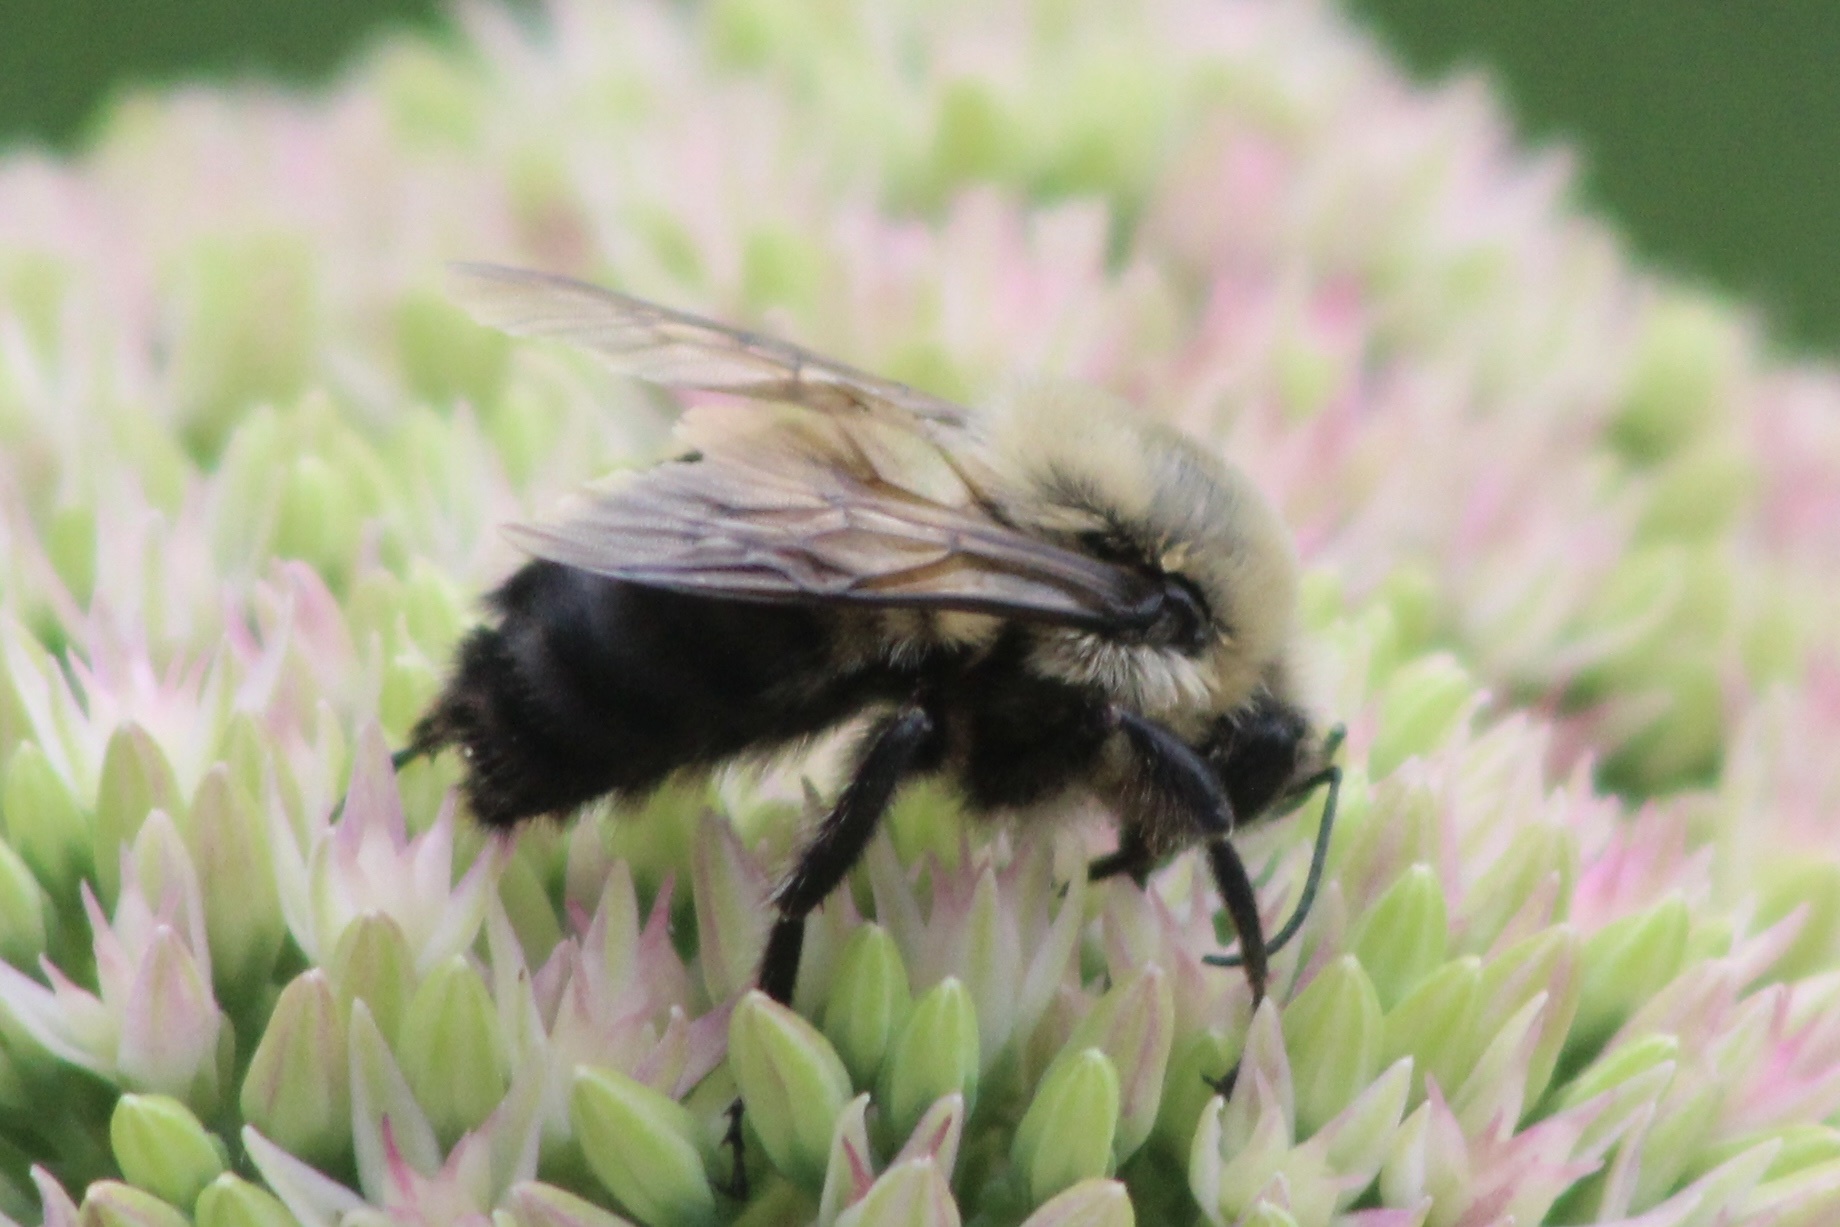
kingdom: Animalia
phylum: Arthropoda
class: Insecta
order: Hymenoptera
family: Apidae
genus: Bombus
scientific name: Bombus griseocollis
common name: Brown-belted bumble bee
